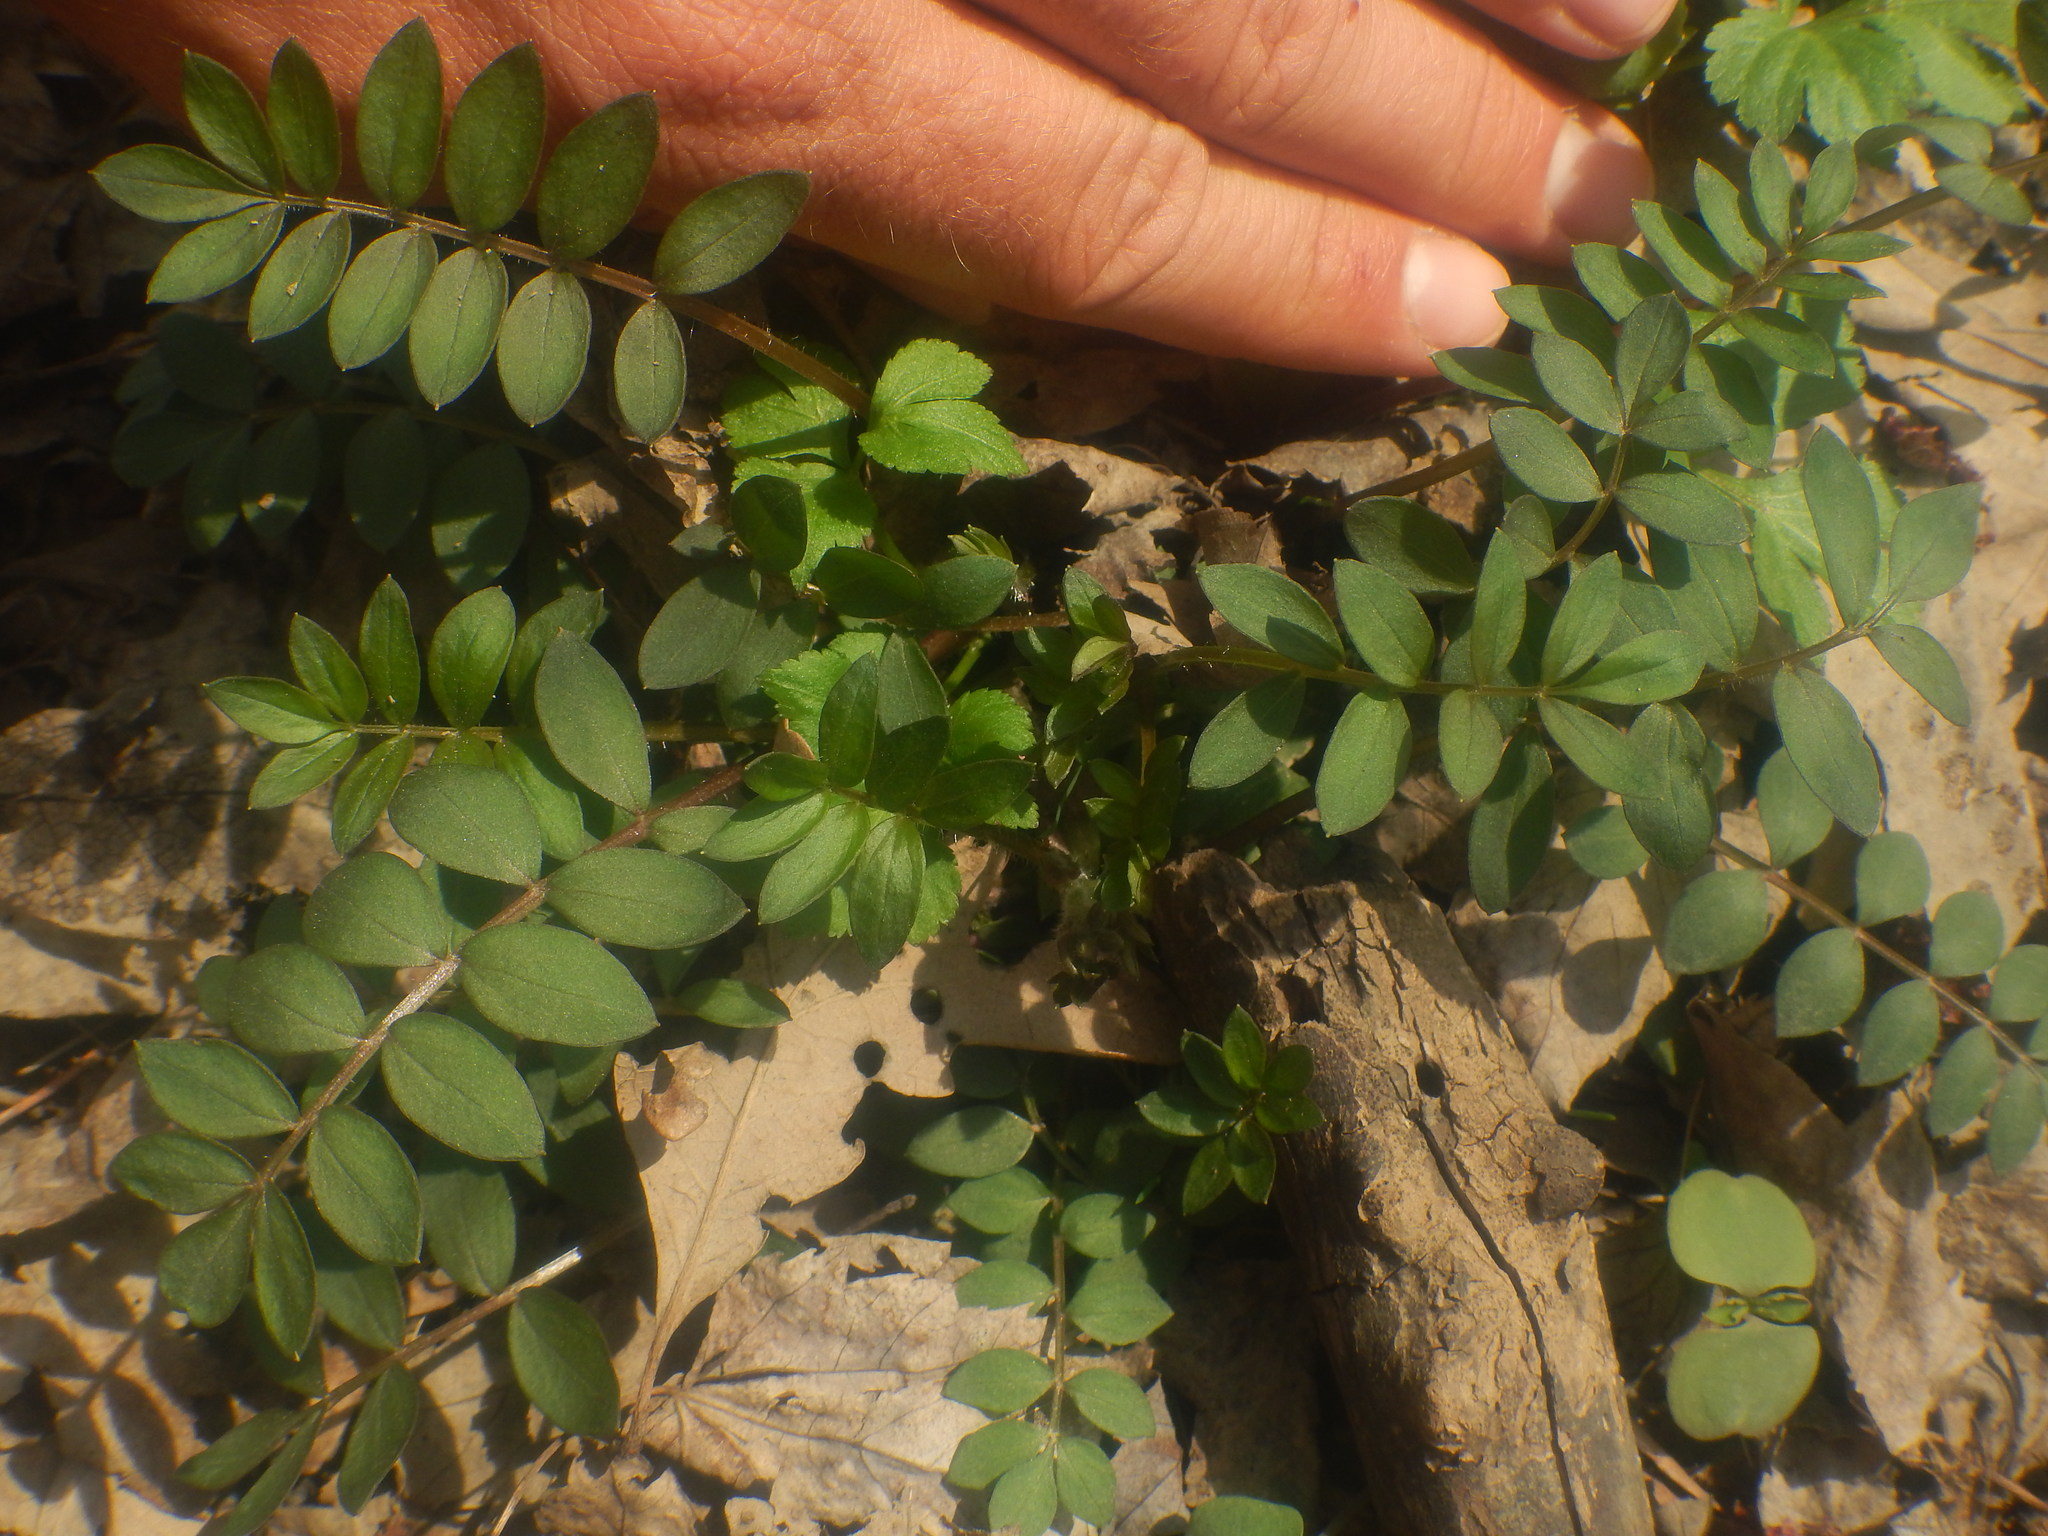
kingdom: Plantae
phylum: Tracheophyta
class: Magnoliopsida
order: Ericales
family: Polemoniaceae
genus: Polemonium
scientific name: Polemonium reptans
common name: Creeping jacob's-ladder
